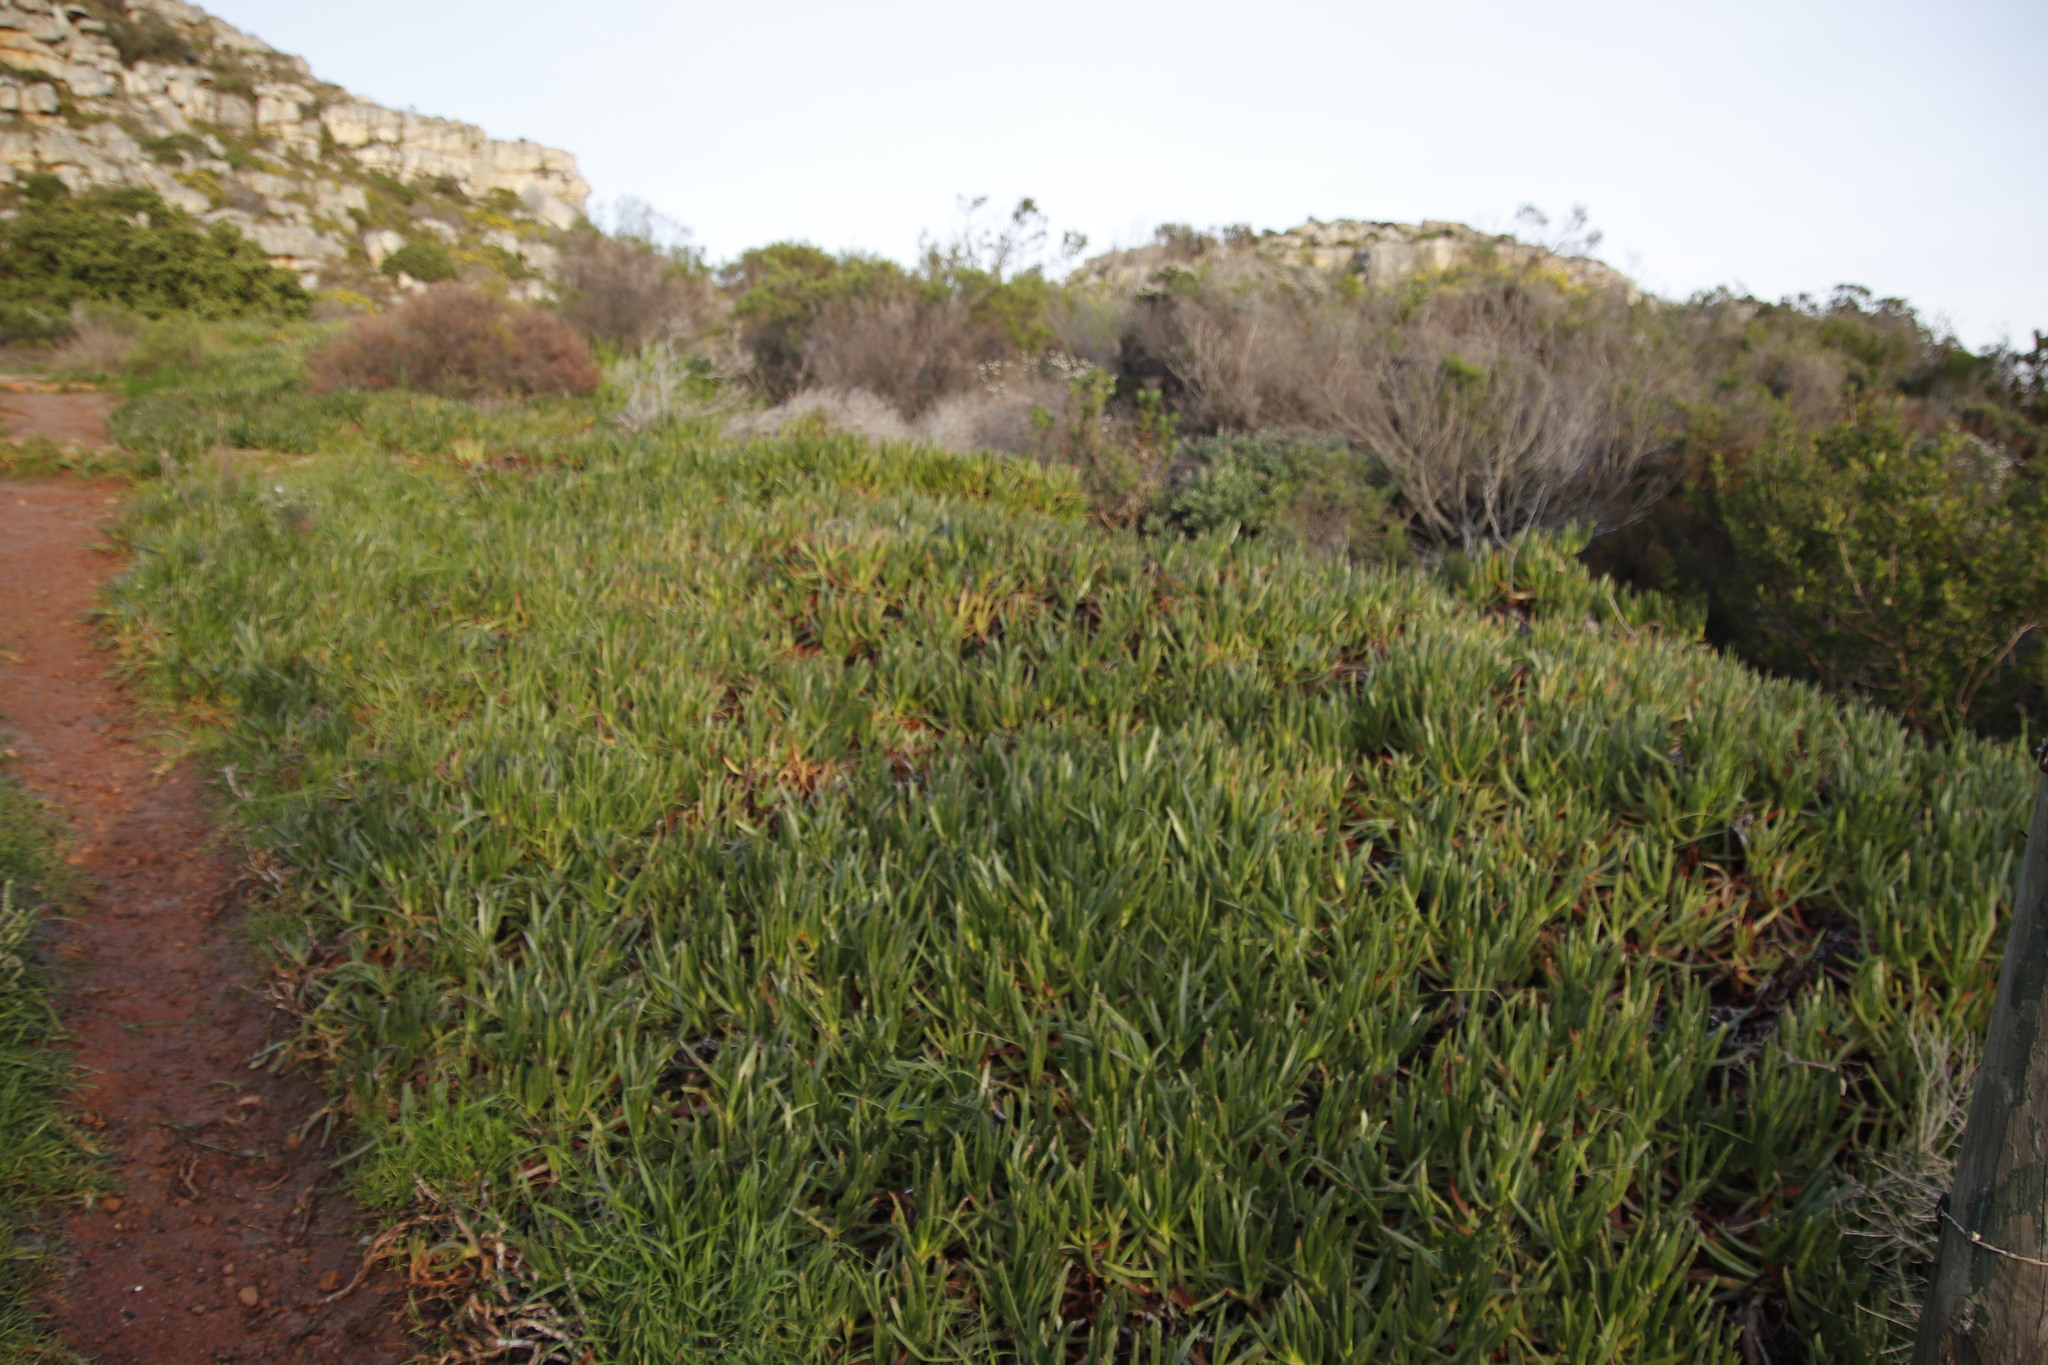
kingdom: Plantae
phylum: Tracheophyta
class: Magnoliopsida
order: Caryophyllales
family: Aizoaceae
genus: Carpobrotus
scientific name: Carpobrotus edulis
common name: Hottentot-fig
